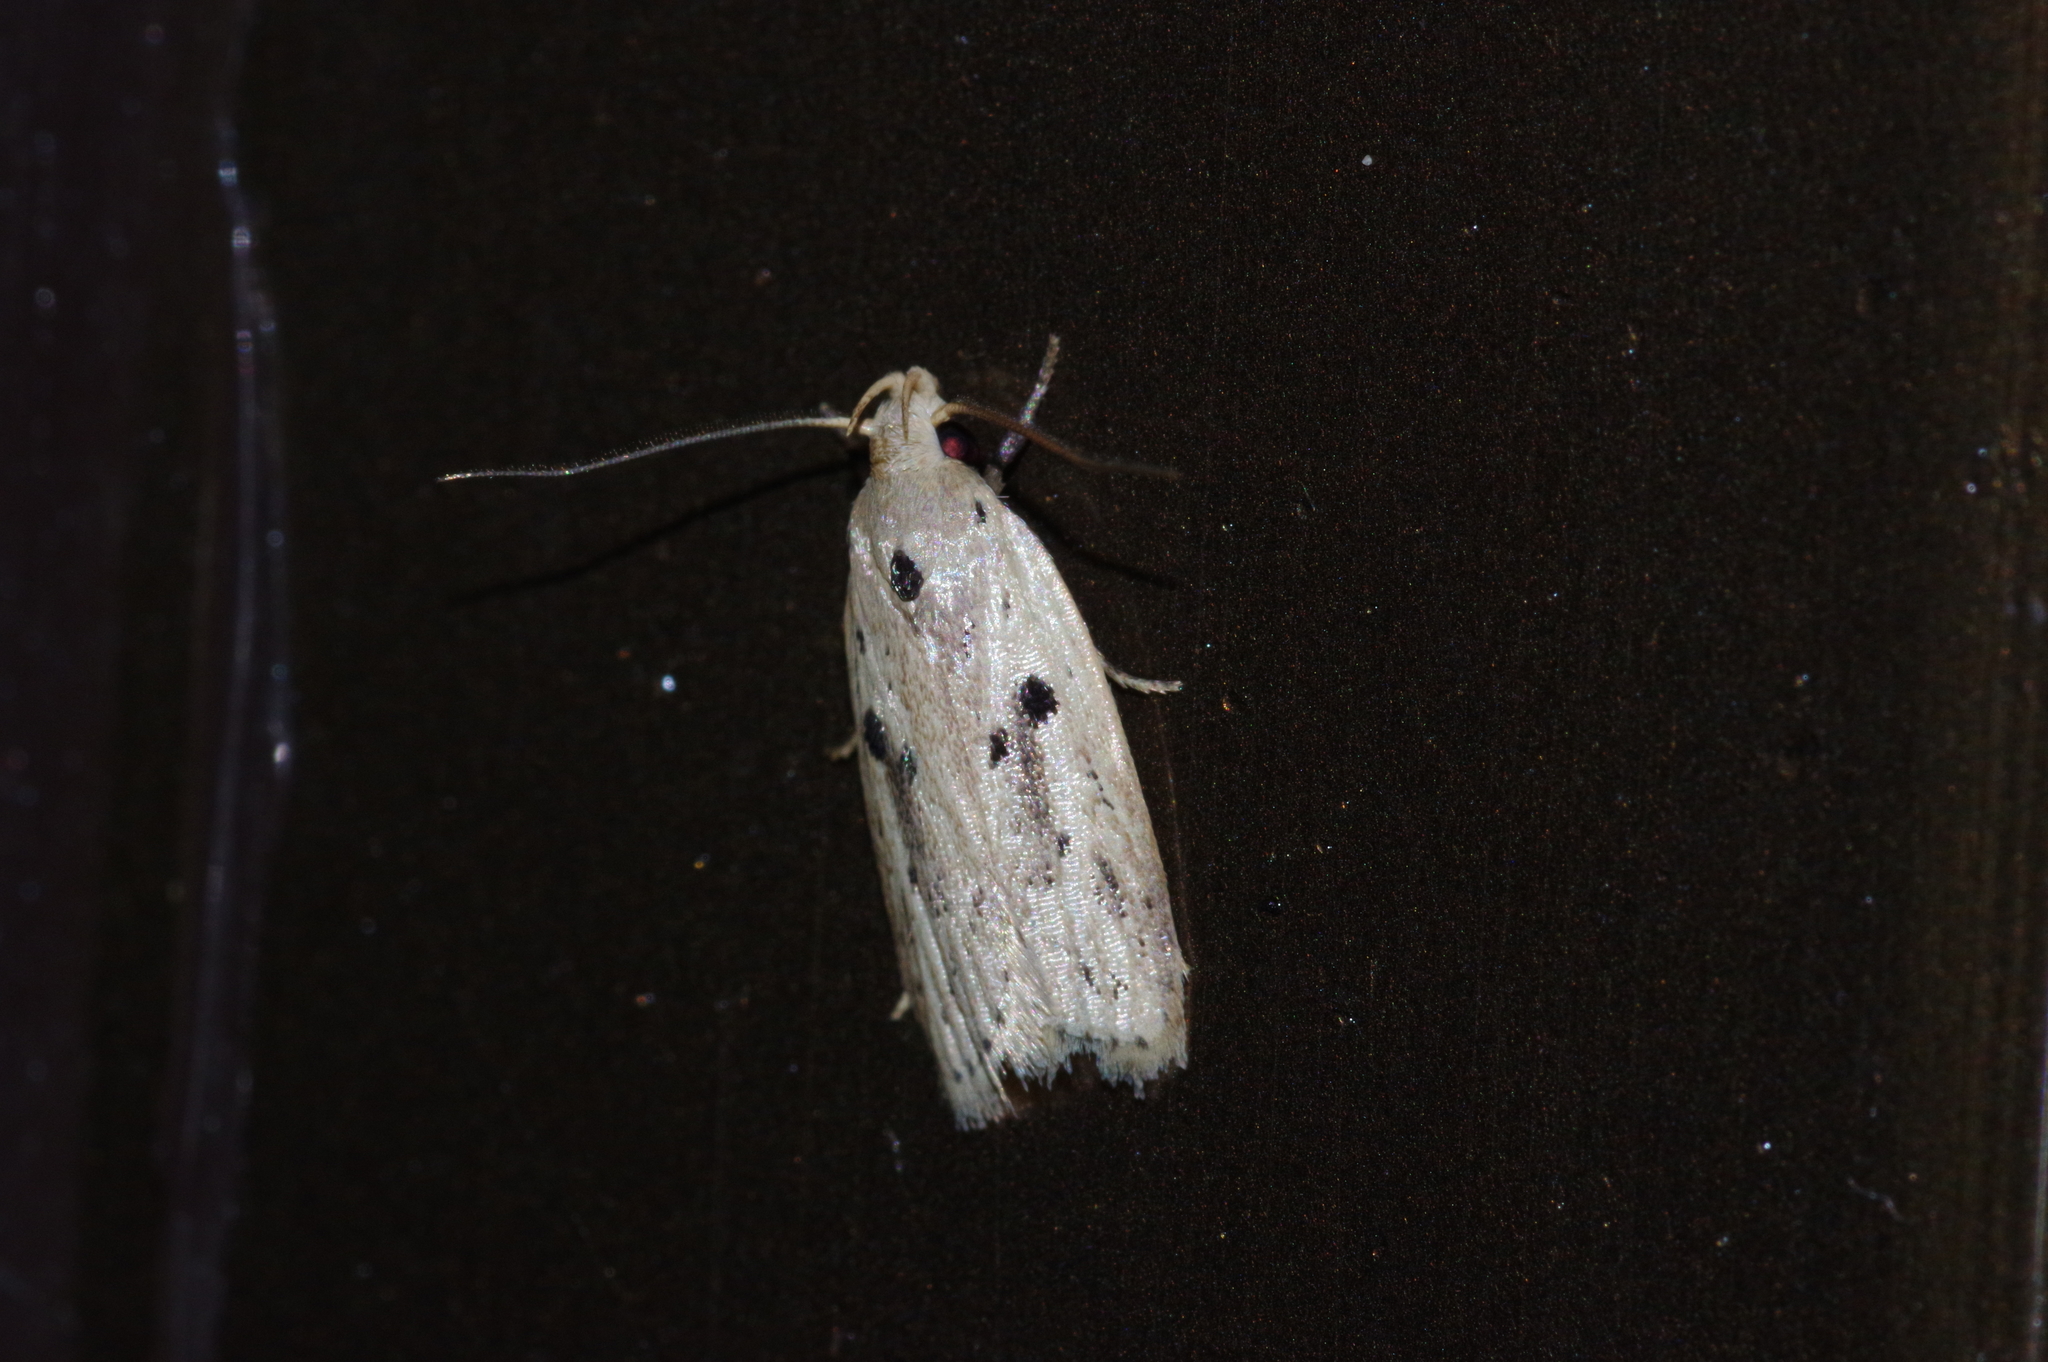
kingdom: Animalia
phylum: Arthropoda
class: Insecta
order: Lepidoptera
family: Peleopodidae
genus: Scythropiodes
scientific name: Scythropiodes issikii
